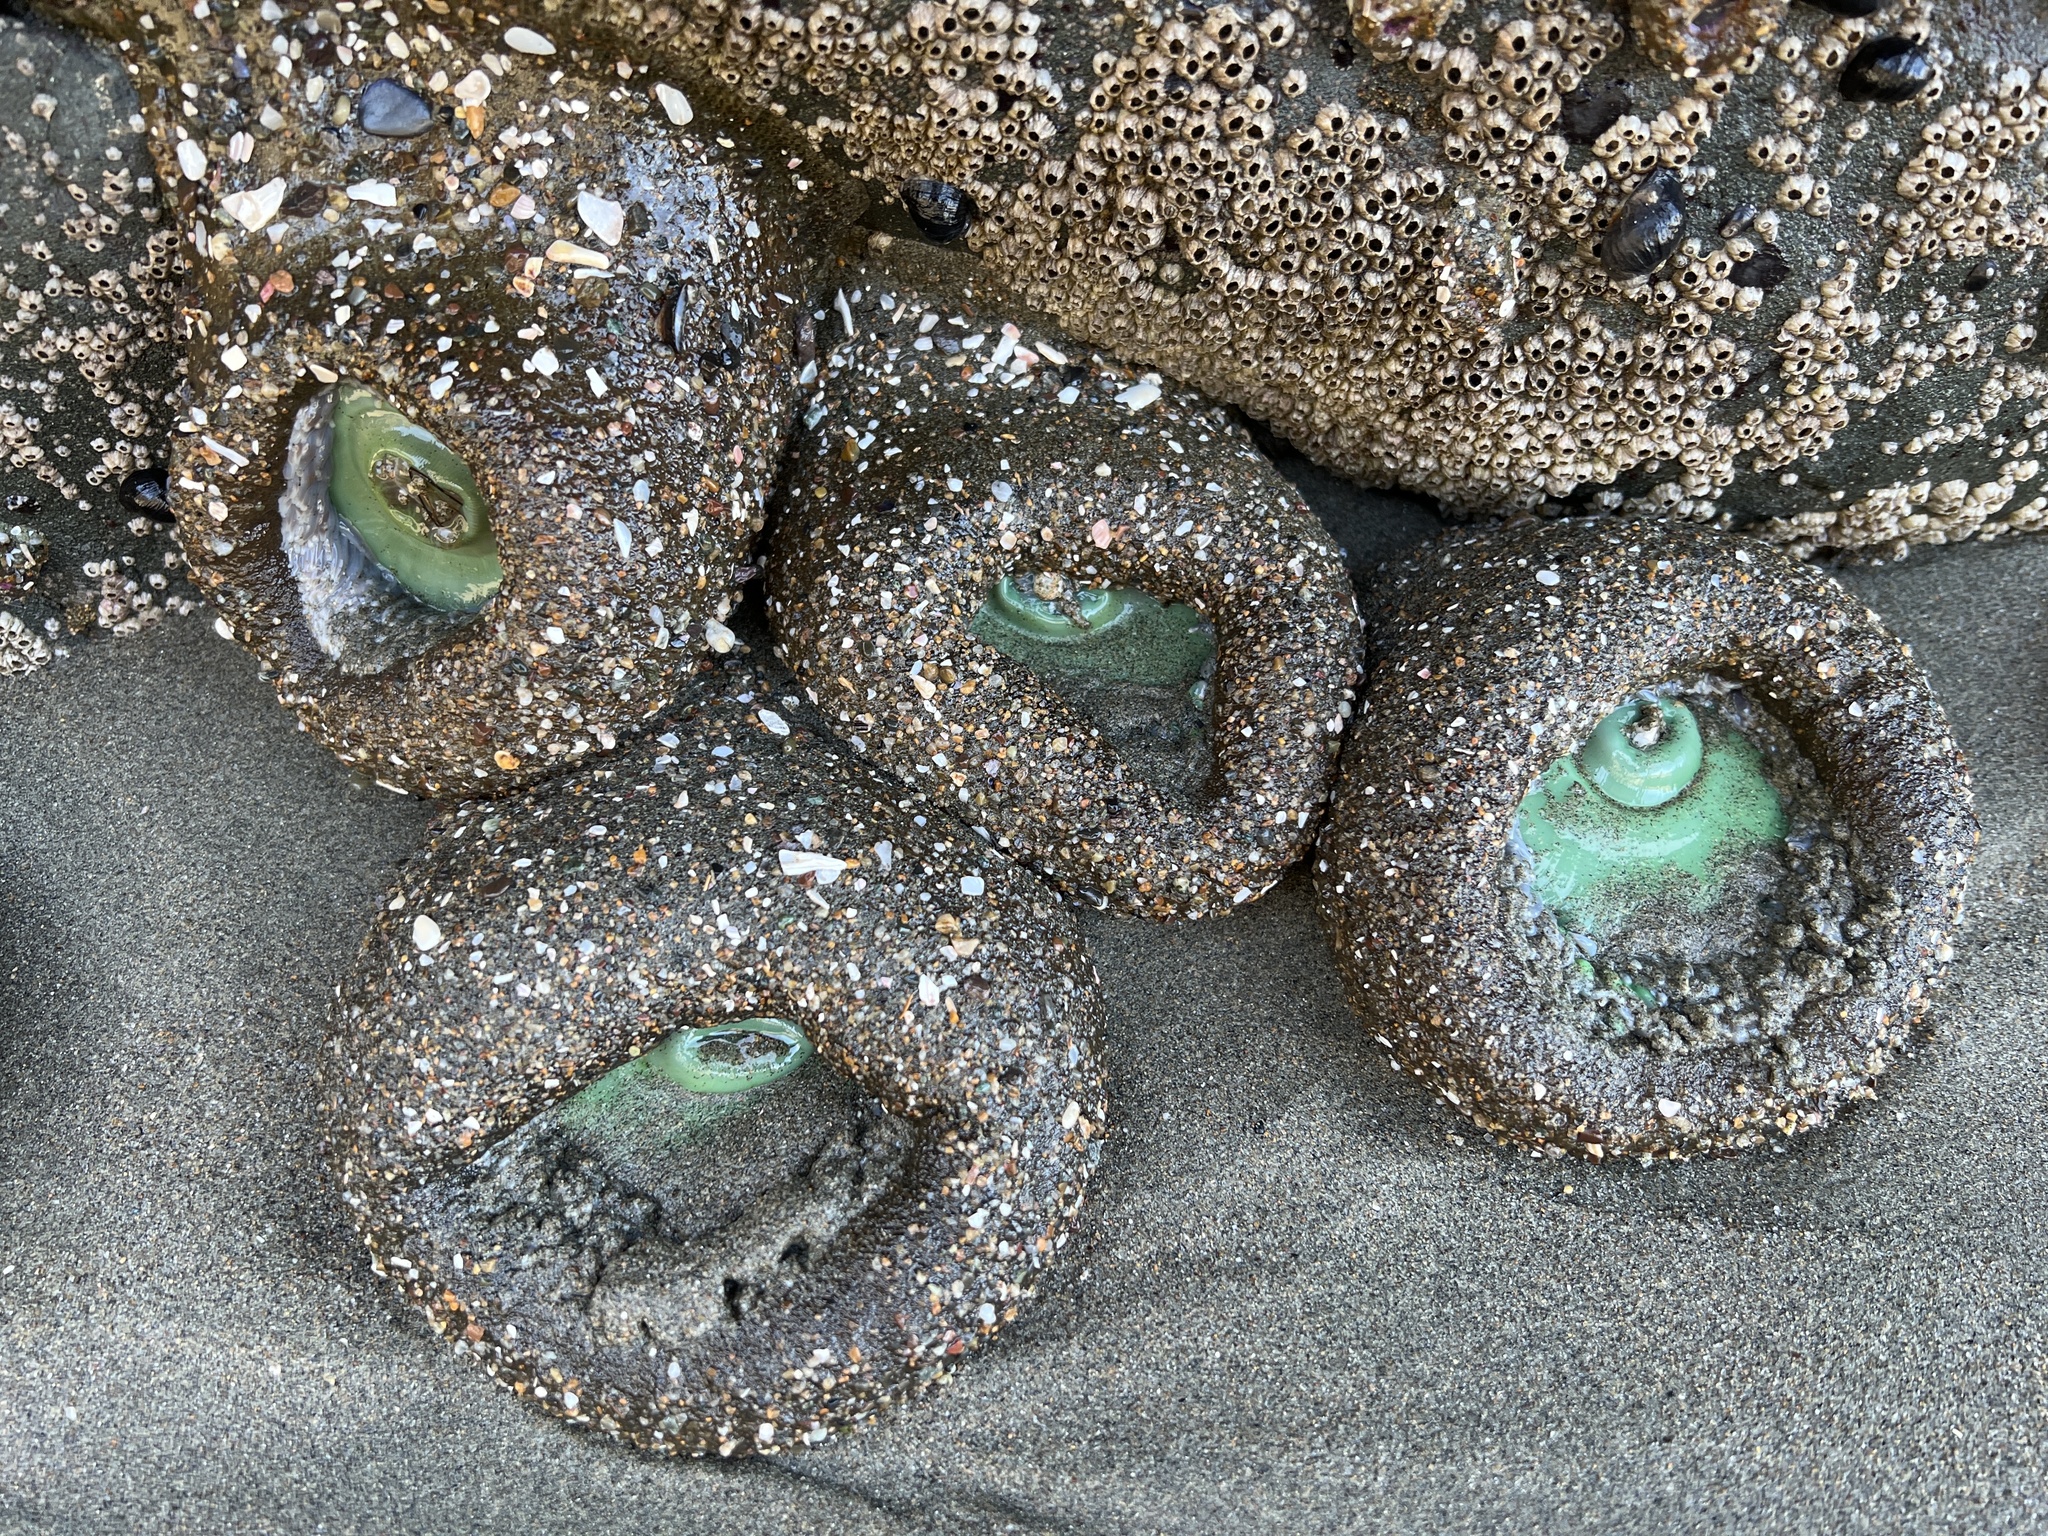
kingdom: Animalia
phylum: Cnidaria
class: Anthozoa
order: Actiniaria
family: Actiniidae
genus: Anthopleura
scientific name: Anthopleura xanthogrammica
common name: Giant green anemone
